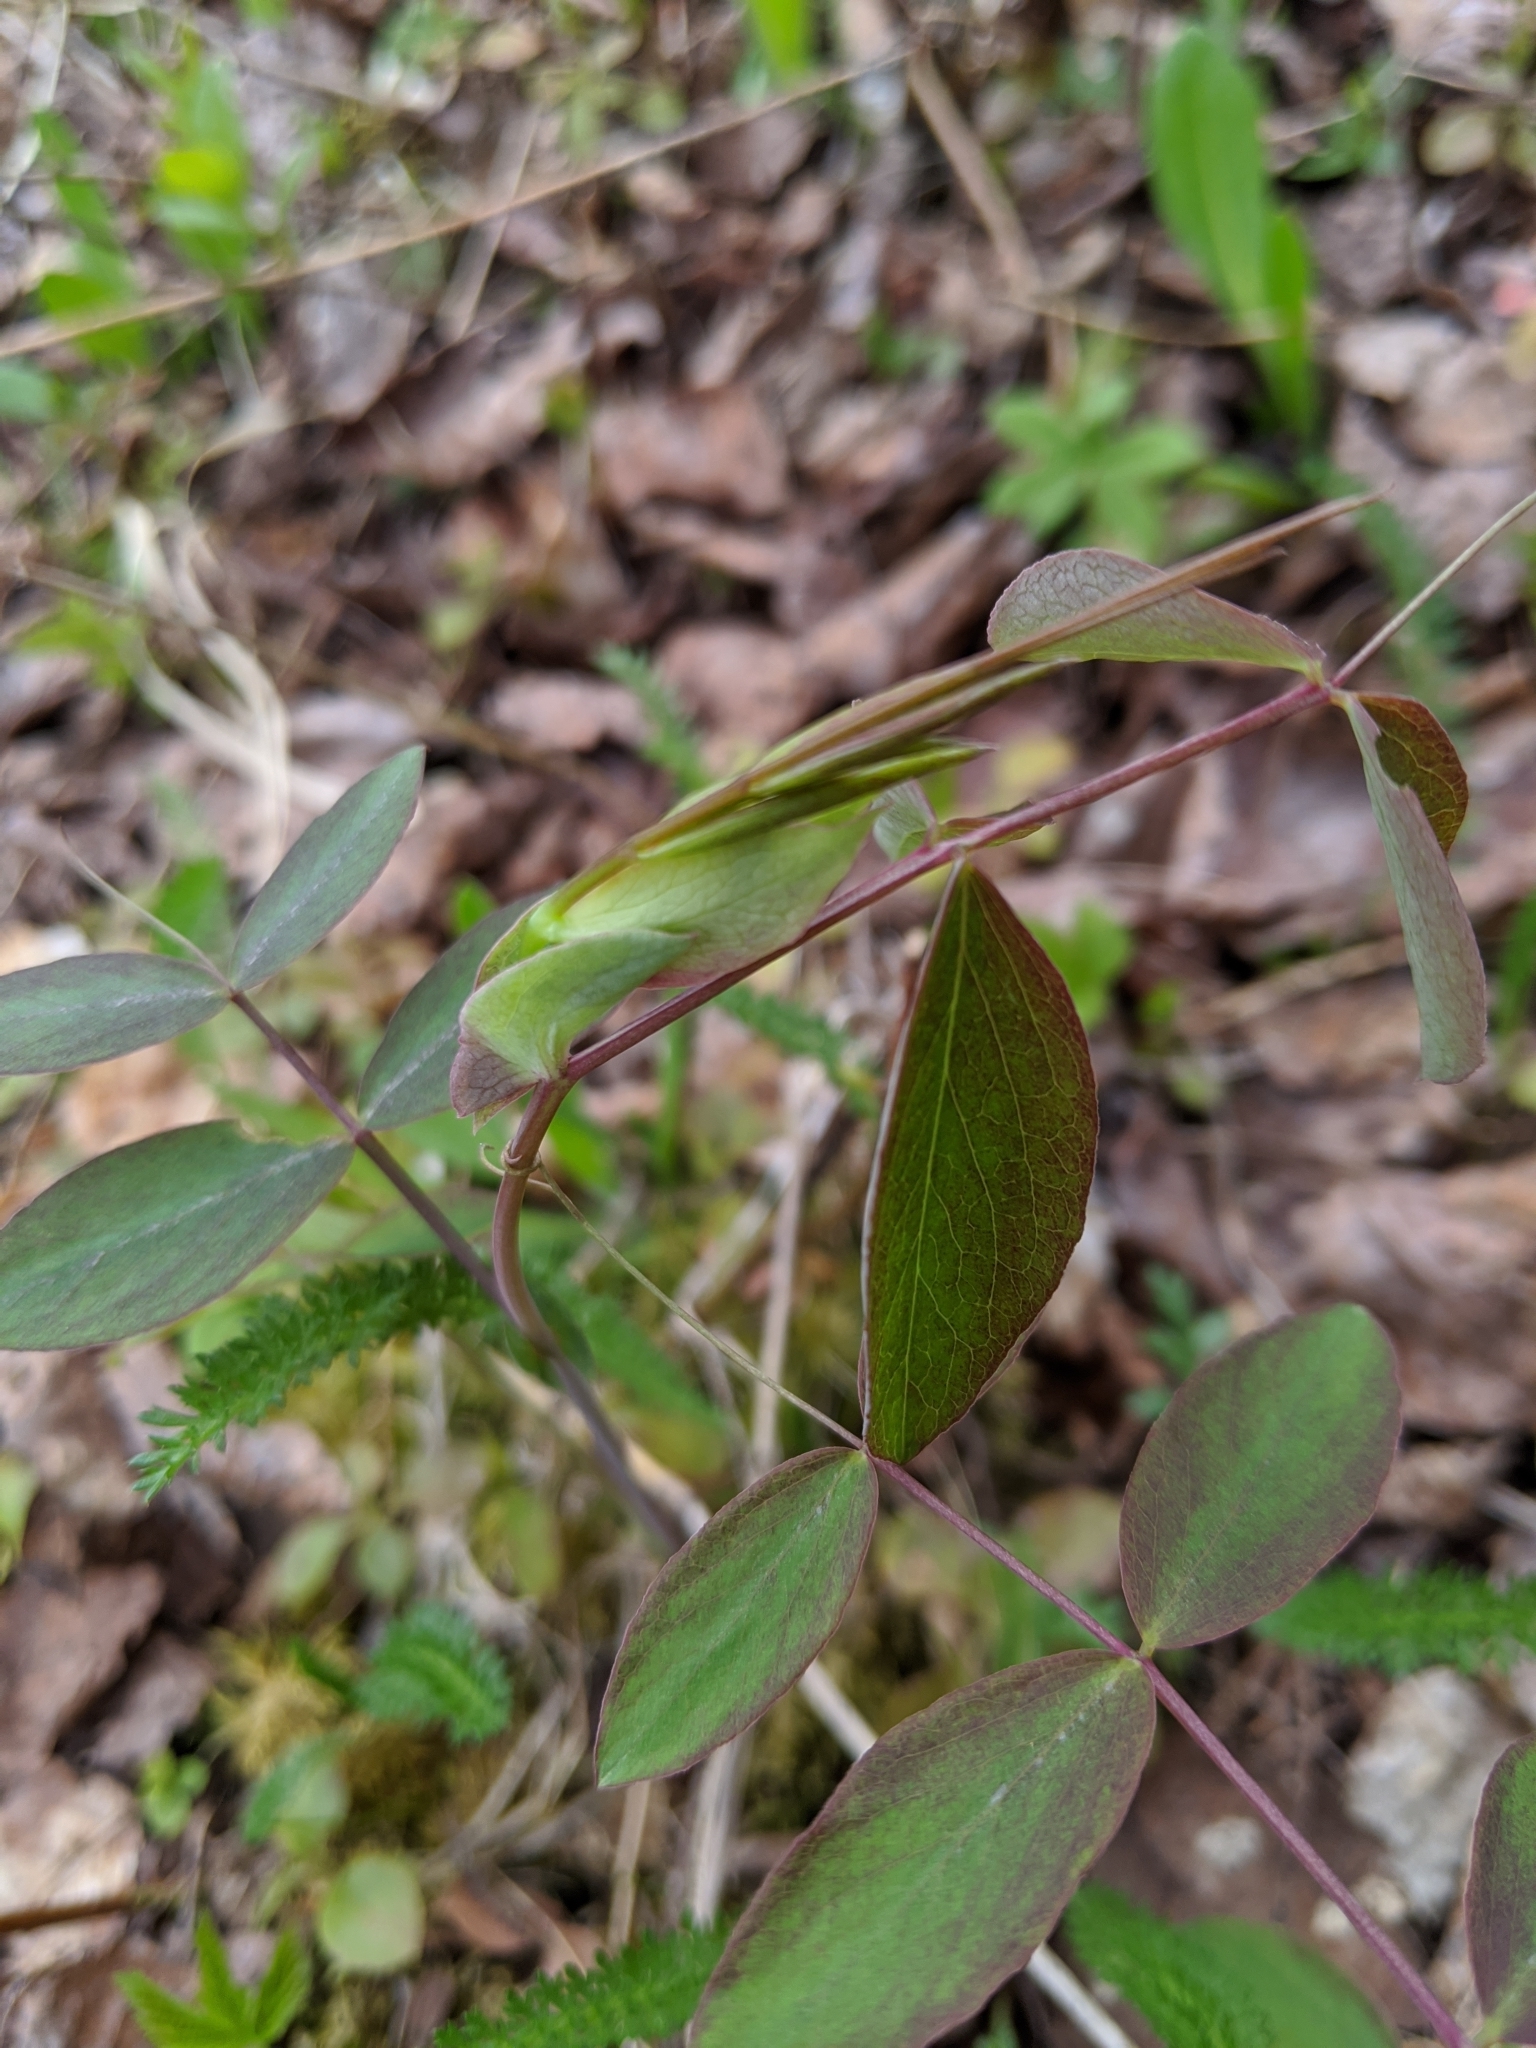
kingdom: Plantae
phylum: Tracheophyta
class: Magnoliopsida
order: Fabales
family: Fabaceae
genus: Lathyrus
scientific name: Lathyrus ochroleucus
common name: Pale vetchling
